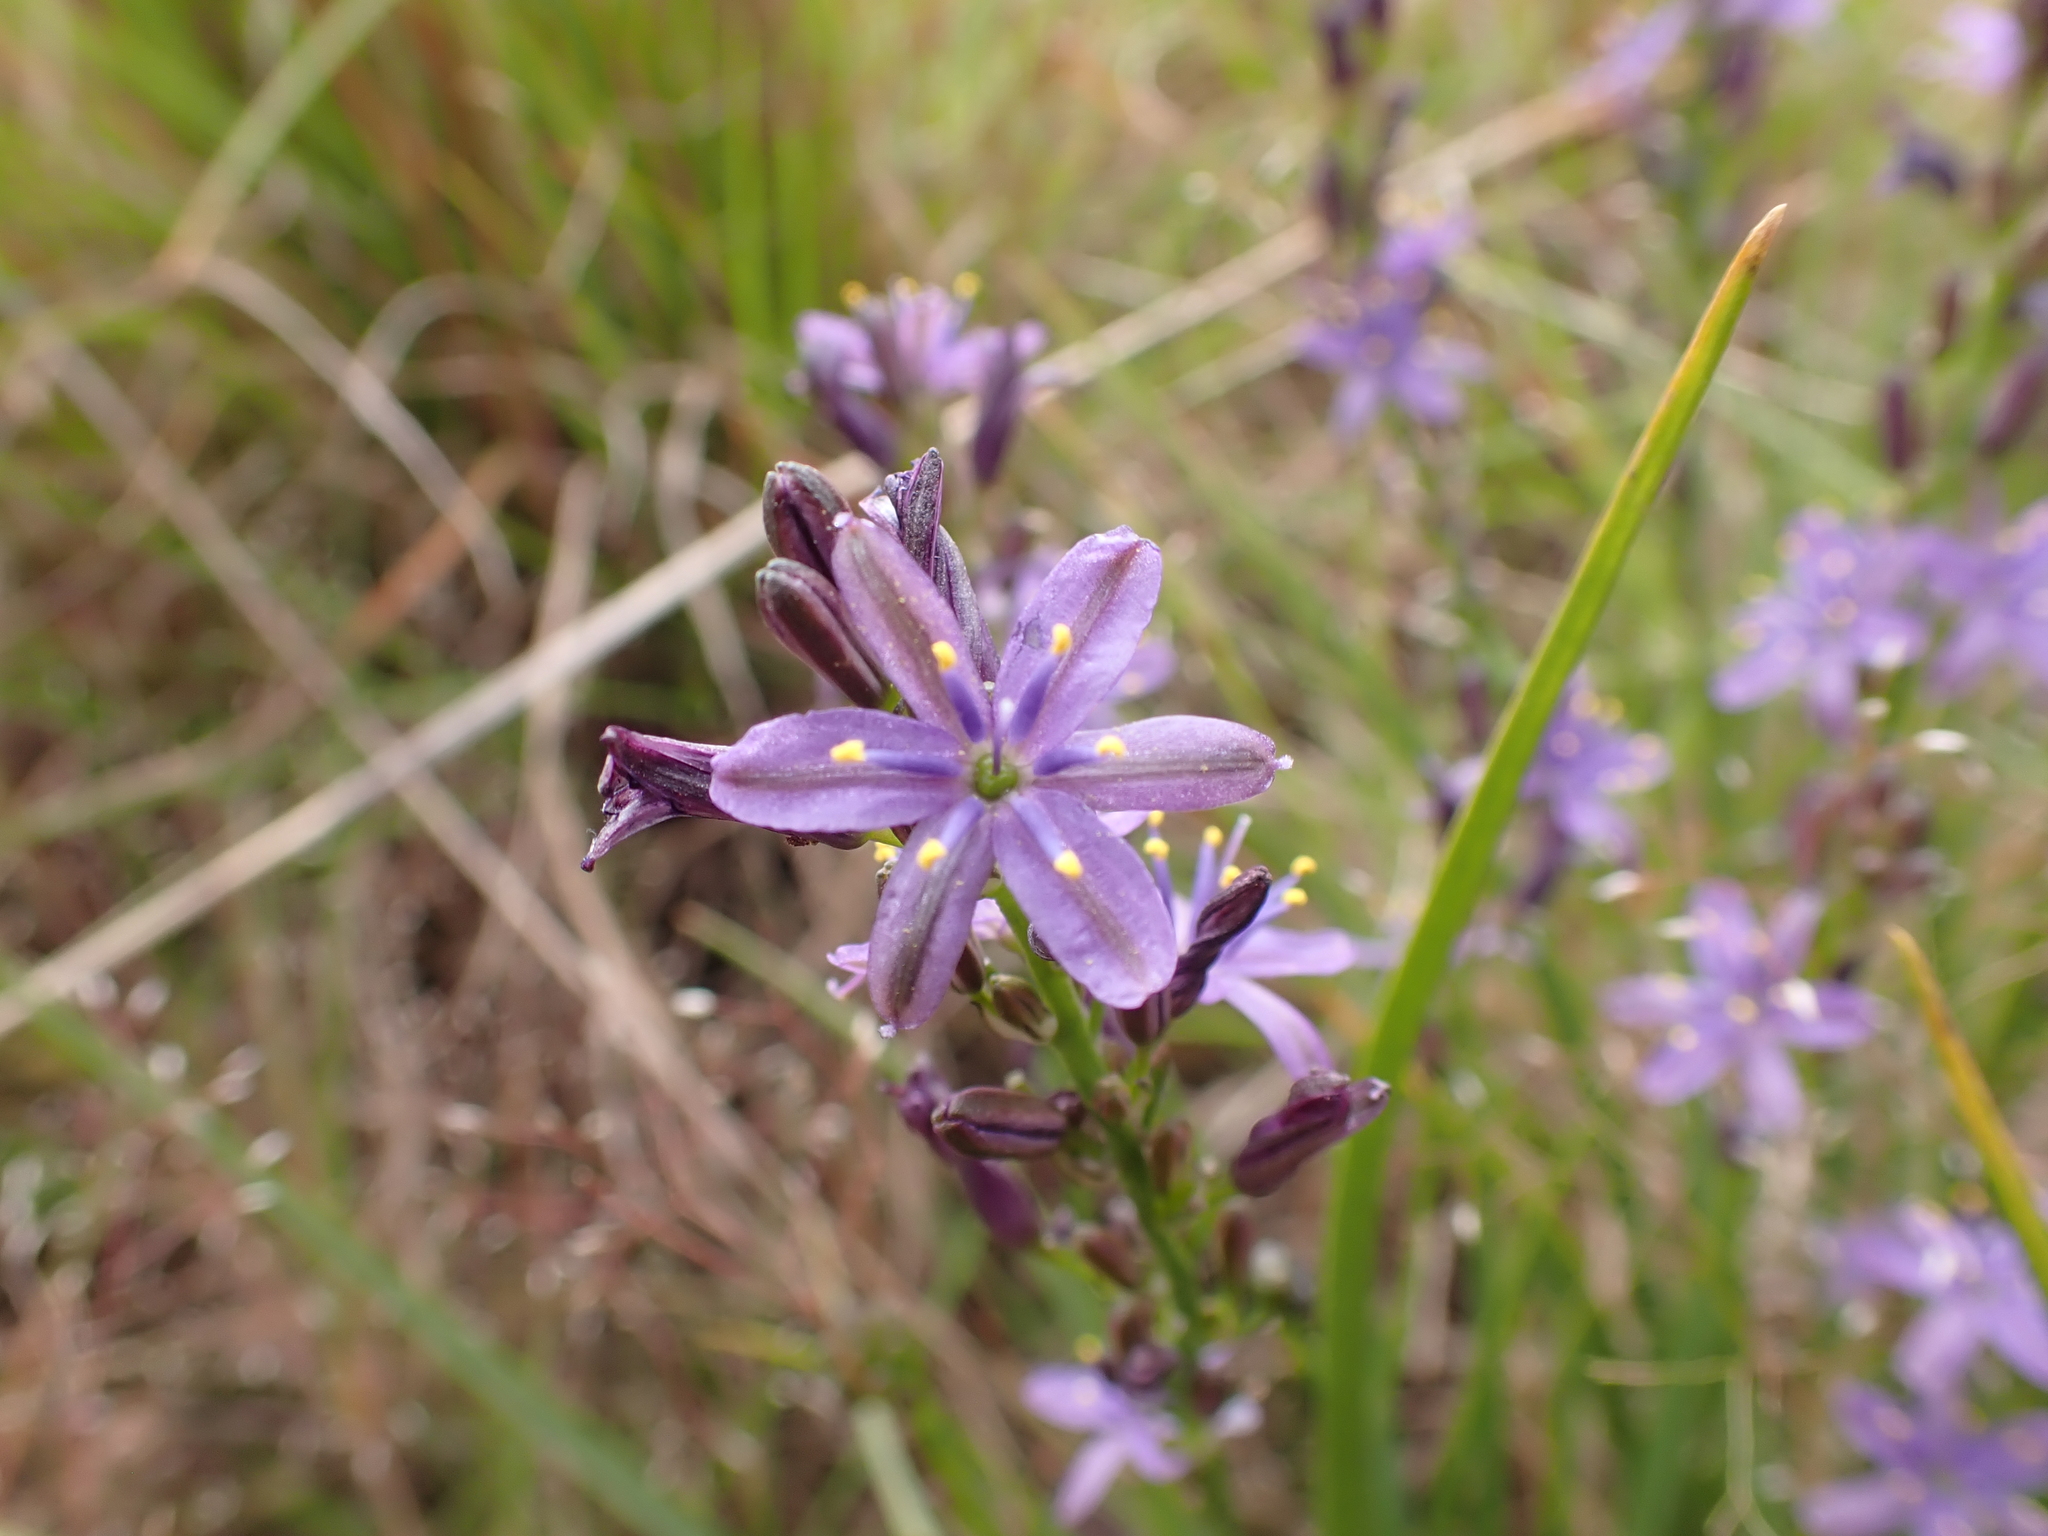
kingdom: Plantae
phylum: Tracheophyta
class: Liliopsida
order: Asparagales
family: Asphodelaceae
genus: Caesia
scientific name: Caesia calliantha
